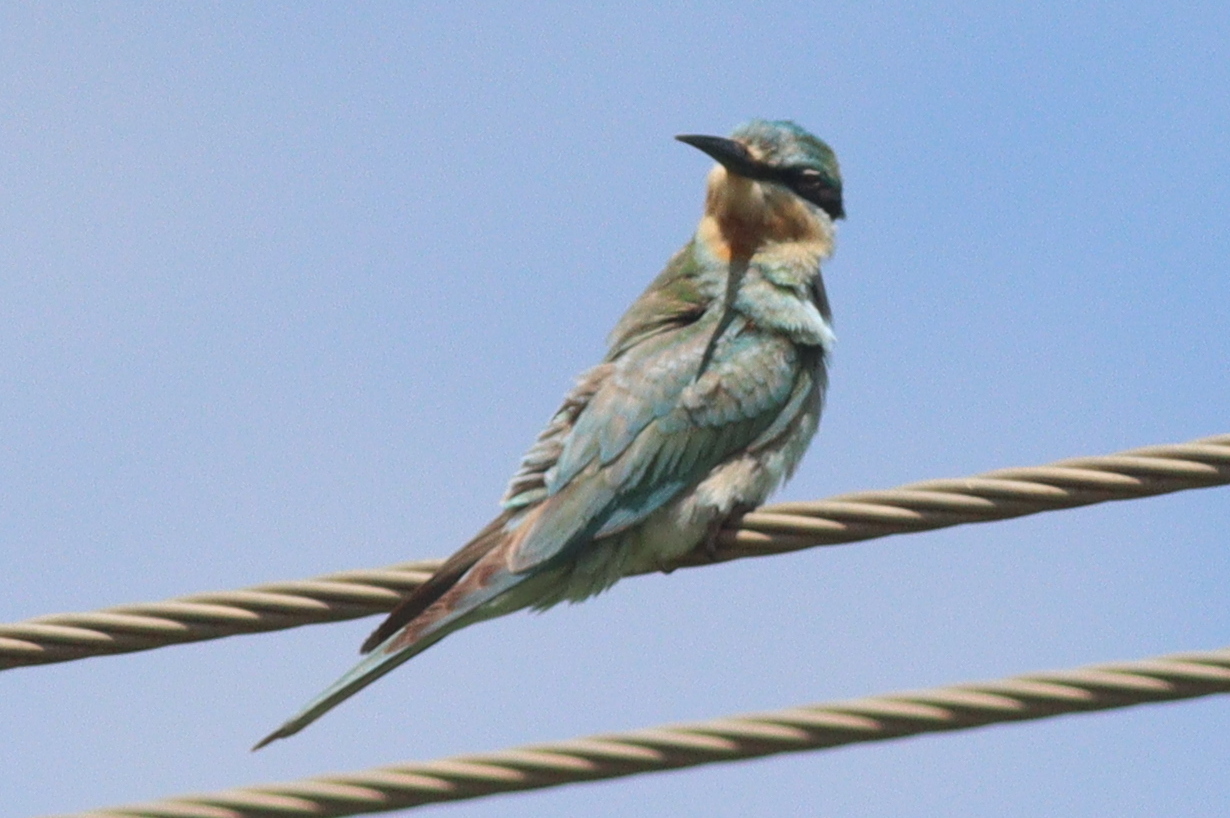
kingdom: Animalia
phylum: Chordata
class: Aves
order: Coraciiformes
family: Meropidae
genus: Merops
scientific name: Merops persicus
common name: Blue-cheeked bee-eater
